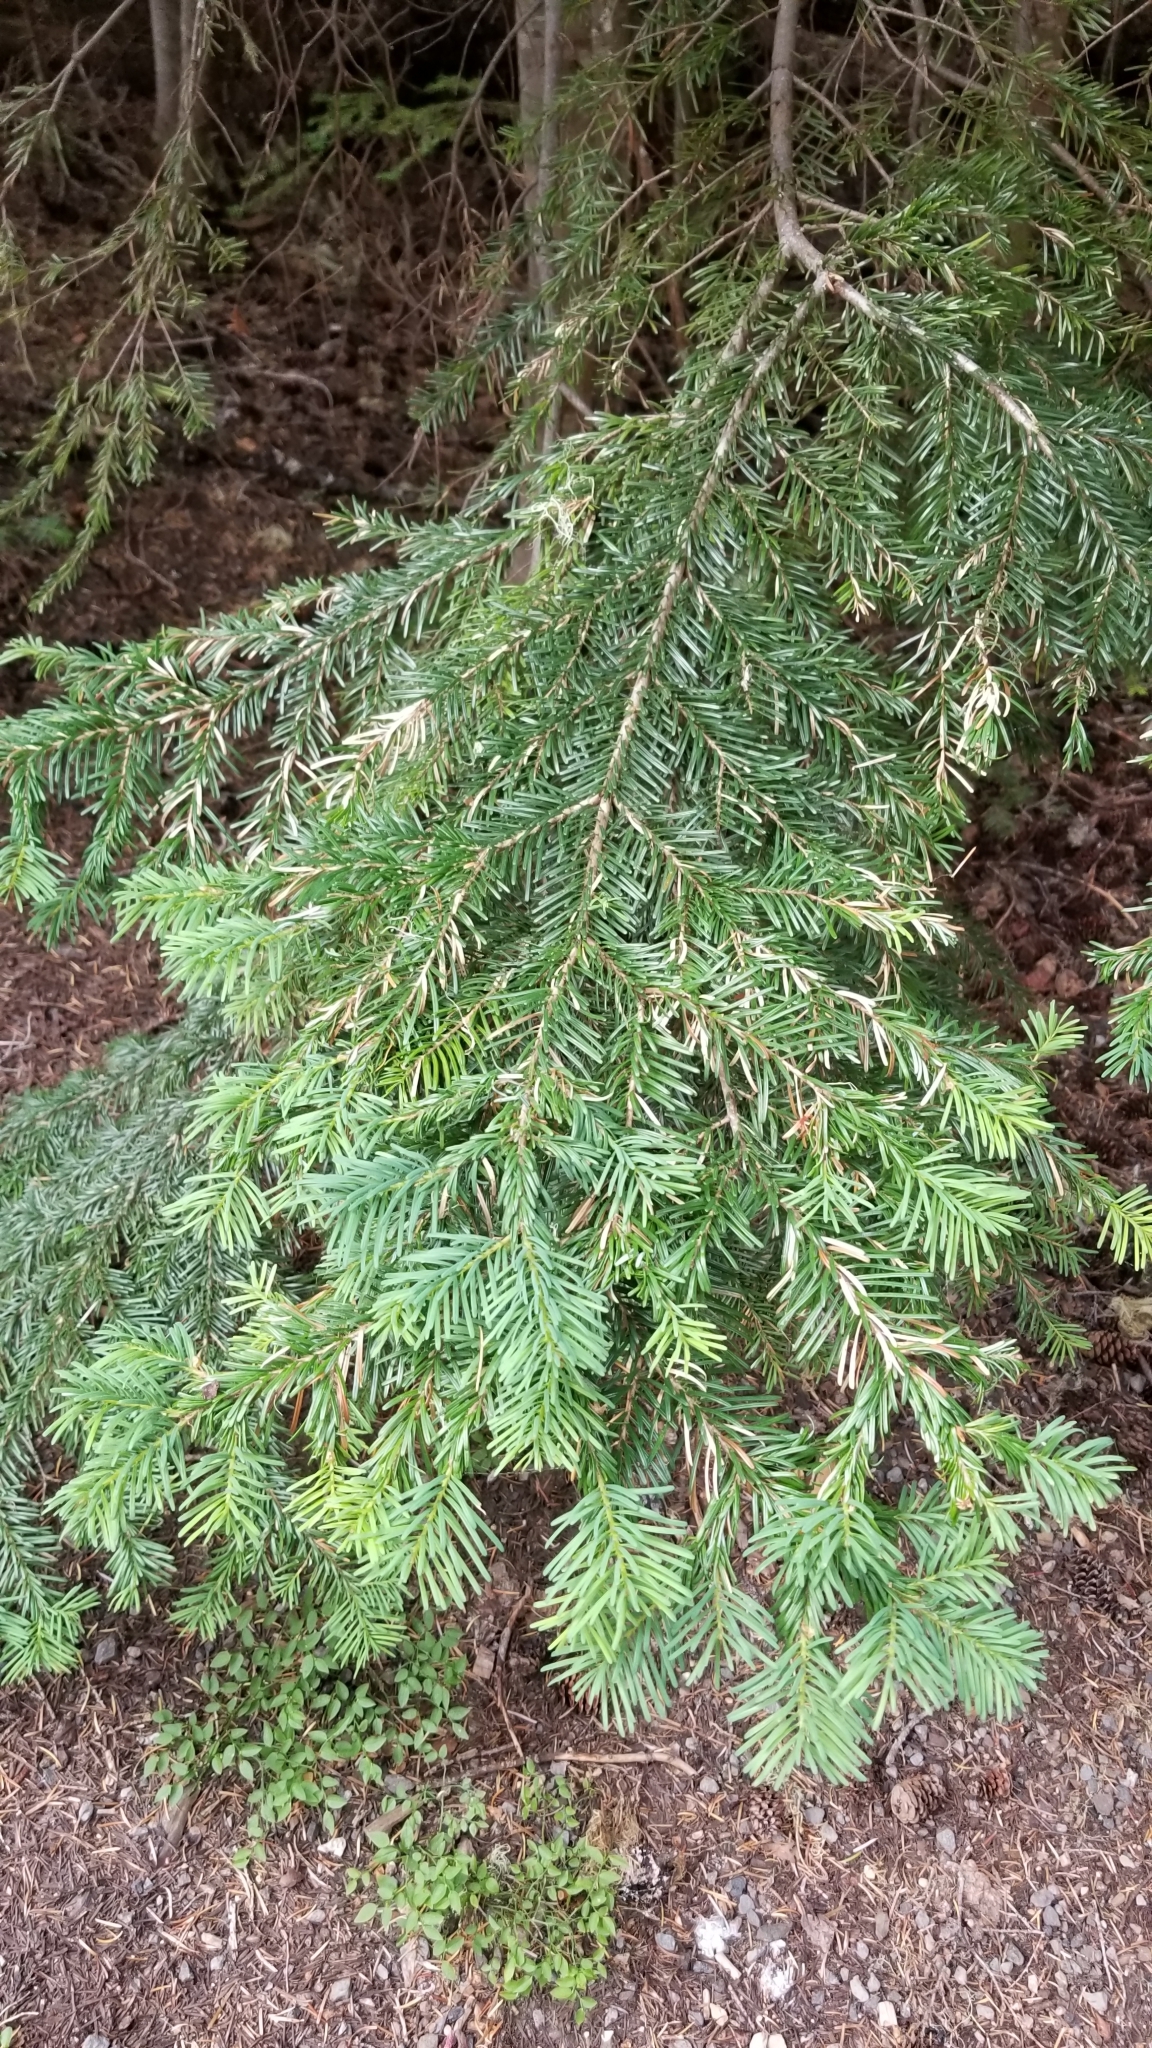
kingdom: Plantae
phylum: Tracheophyta
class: Pinopsida
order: Pinales
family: Pinaceae
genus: Abies
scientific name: Abies amabilis
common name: Pacific silver fir
